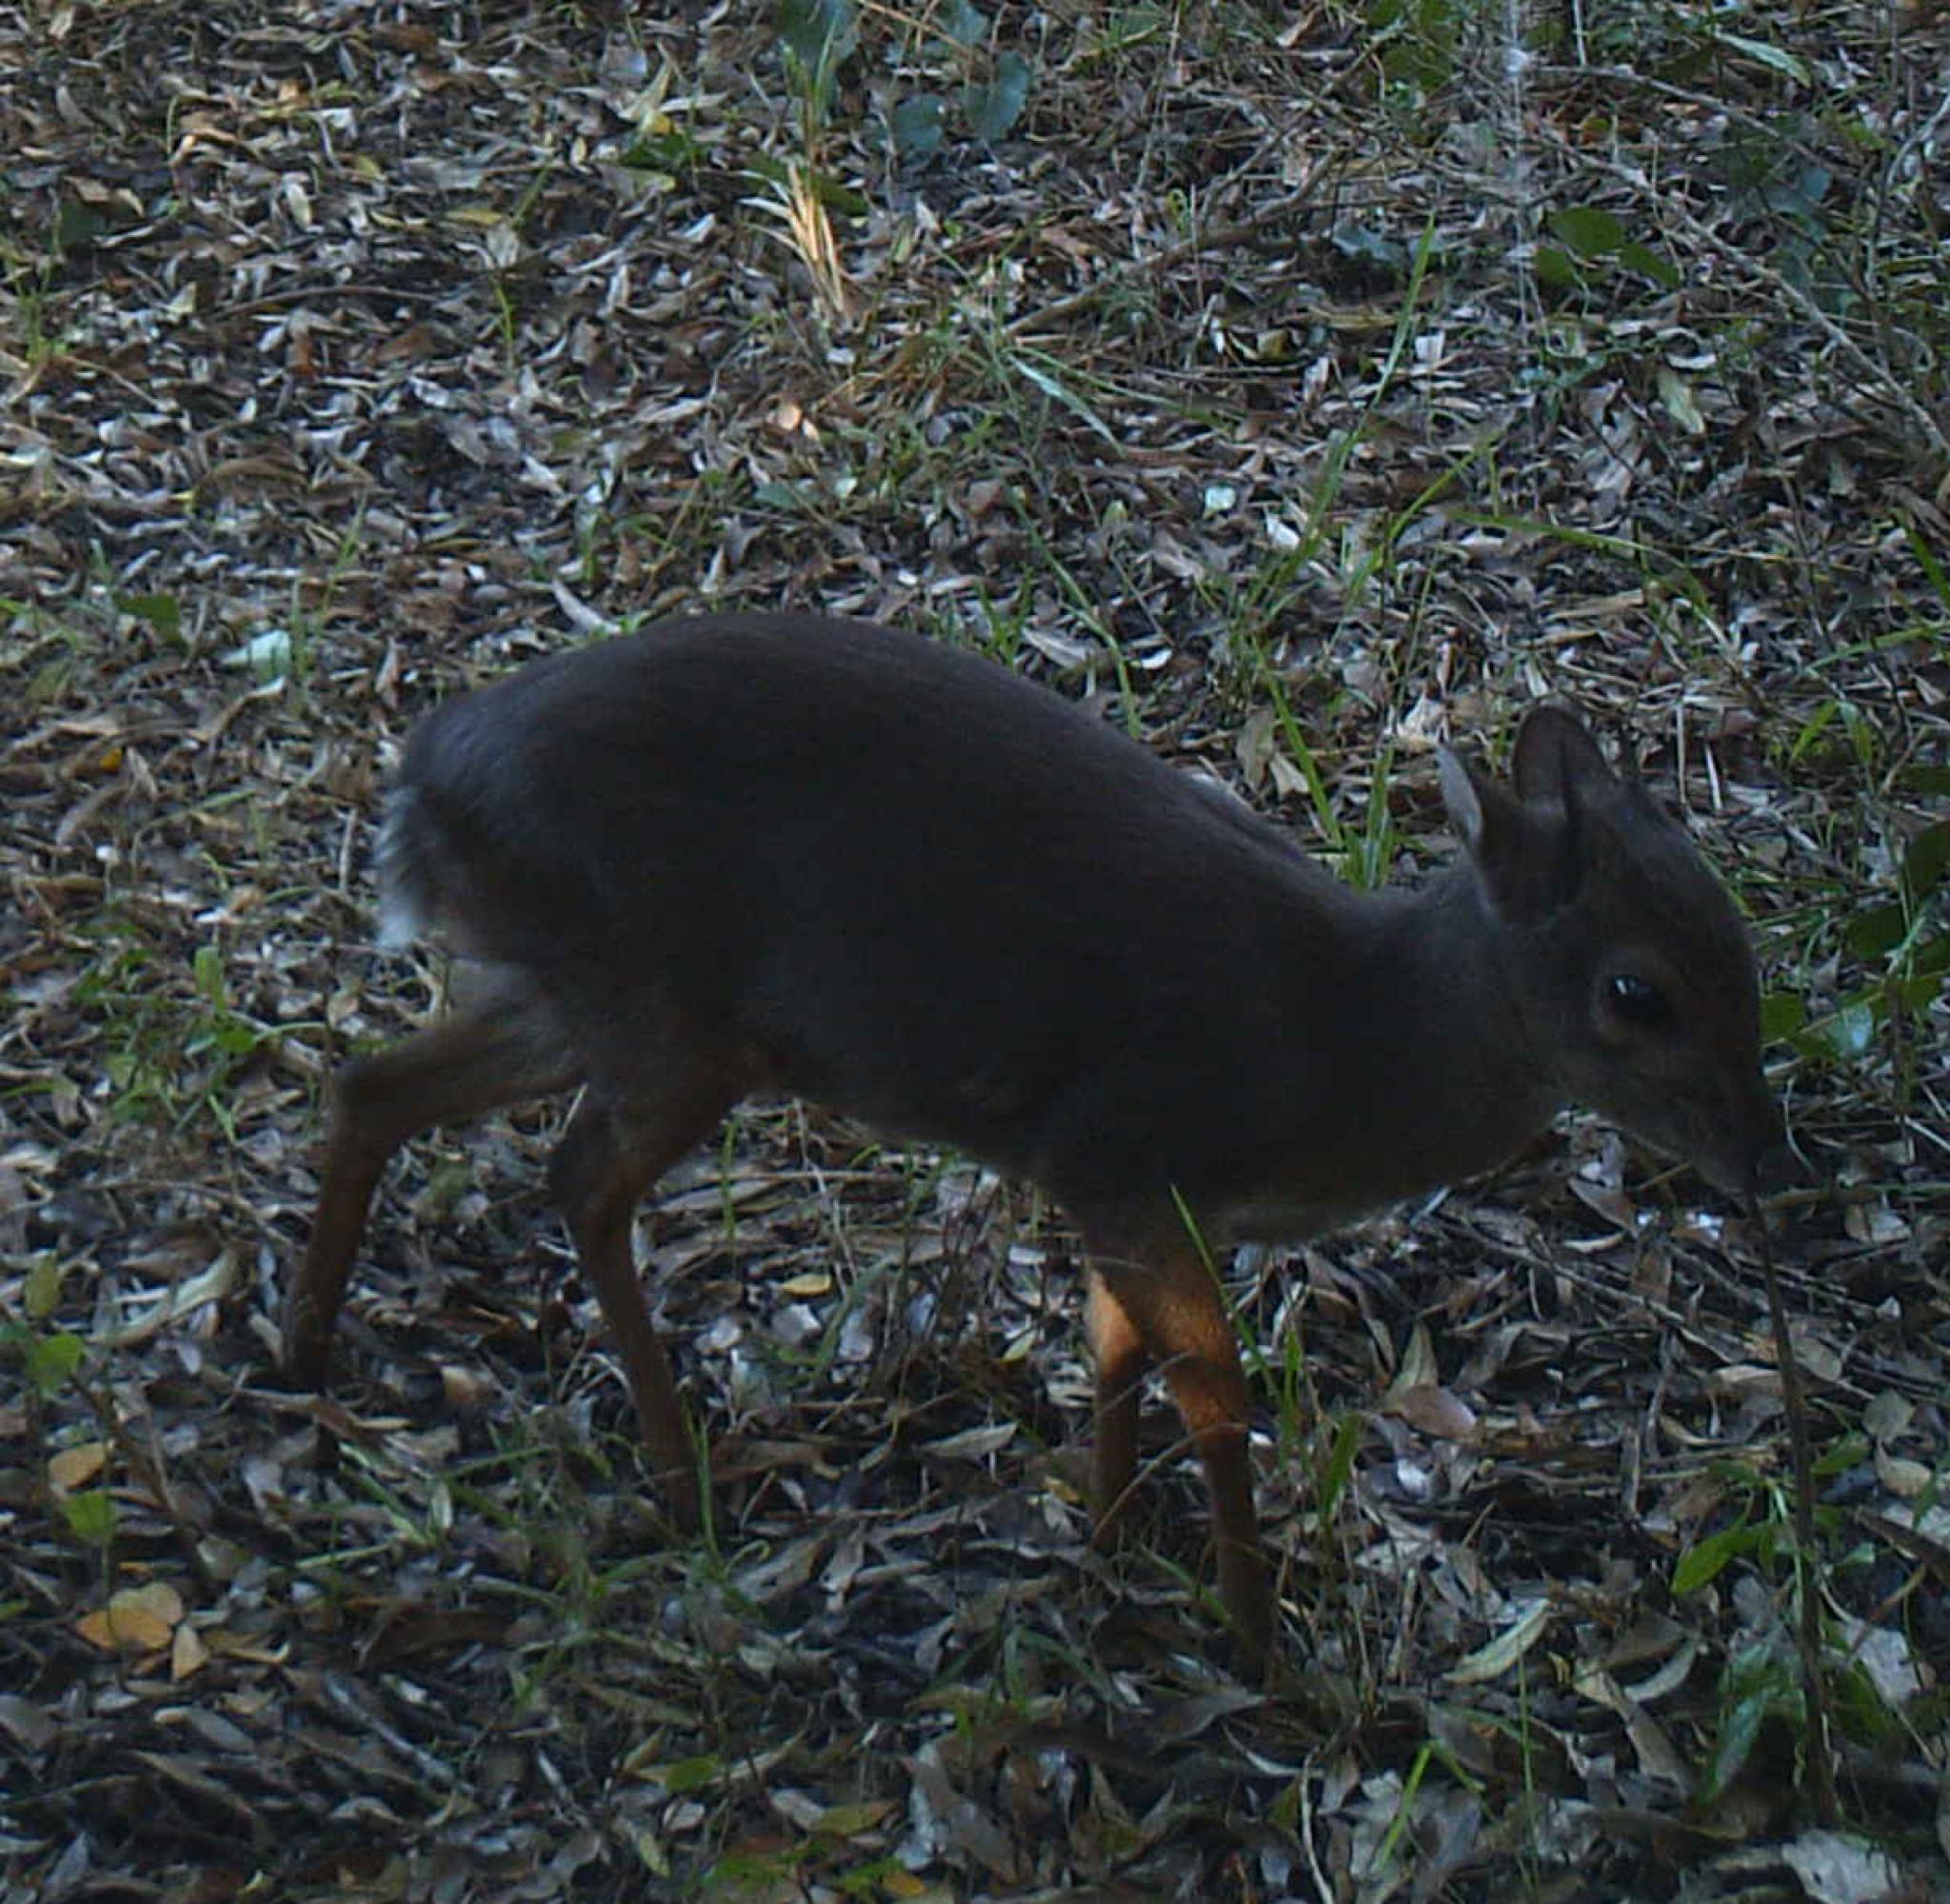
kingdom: Animalia
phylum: Chordata
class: Mammalia
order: Artiodactyla
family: Bovidae
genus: Philantomba
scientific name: Philantomba monticola
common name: Blue duiker
